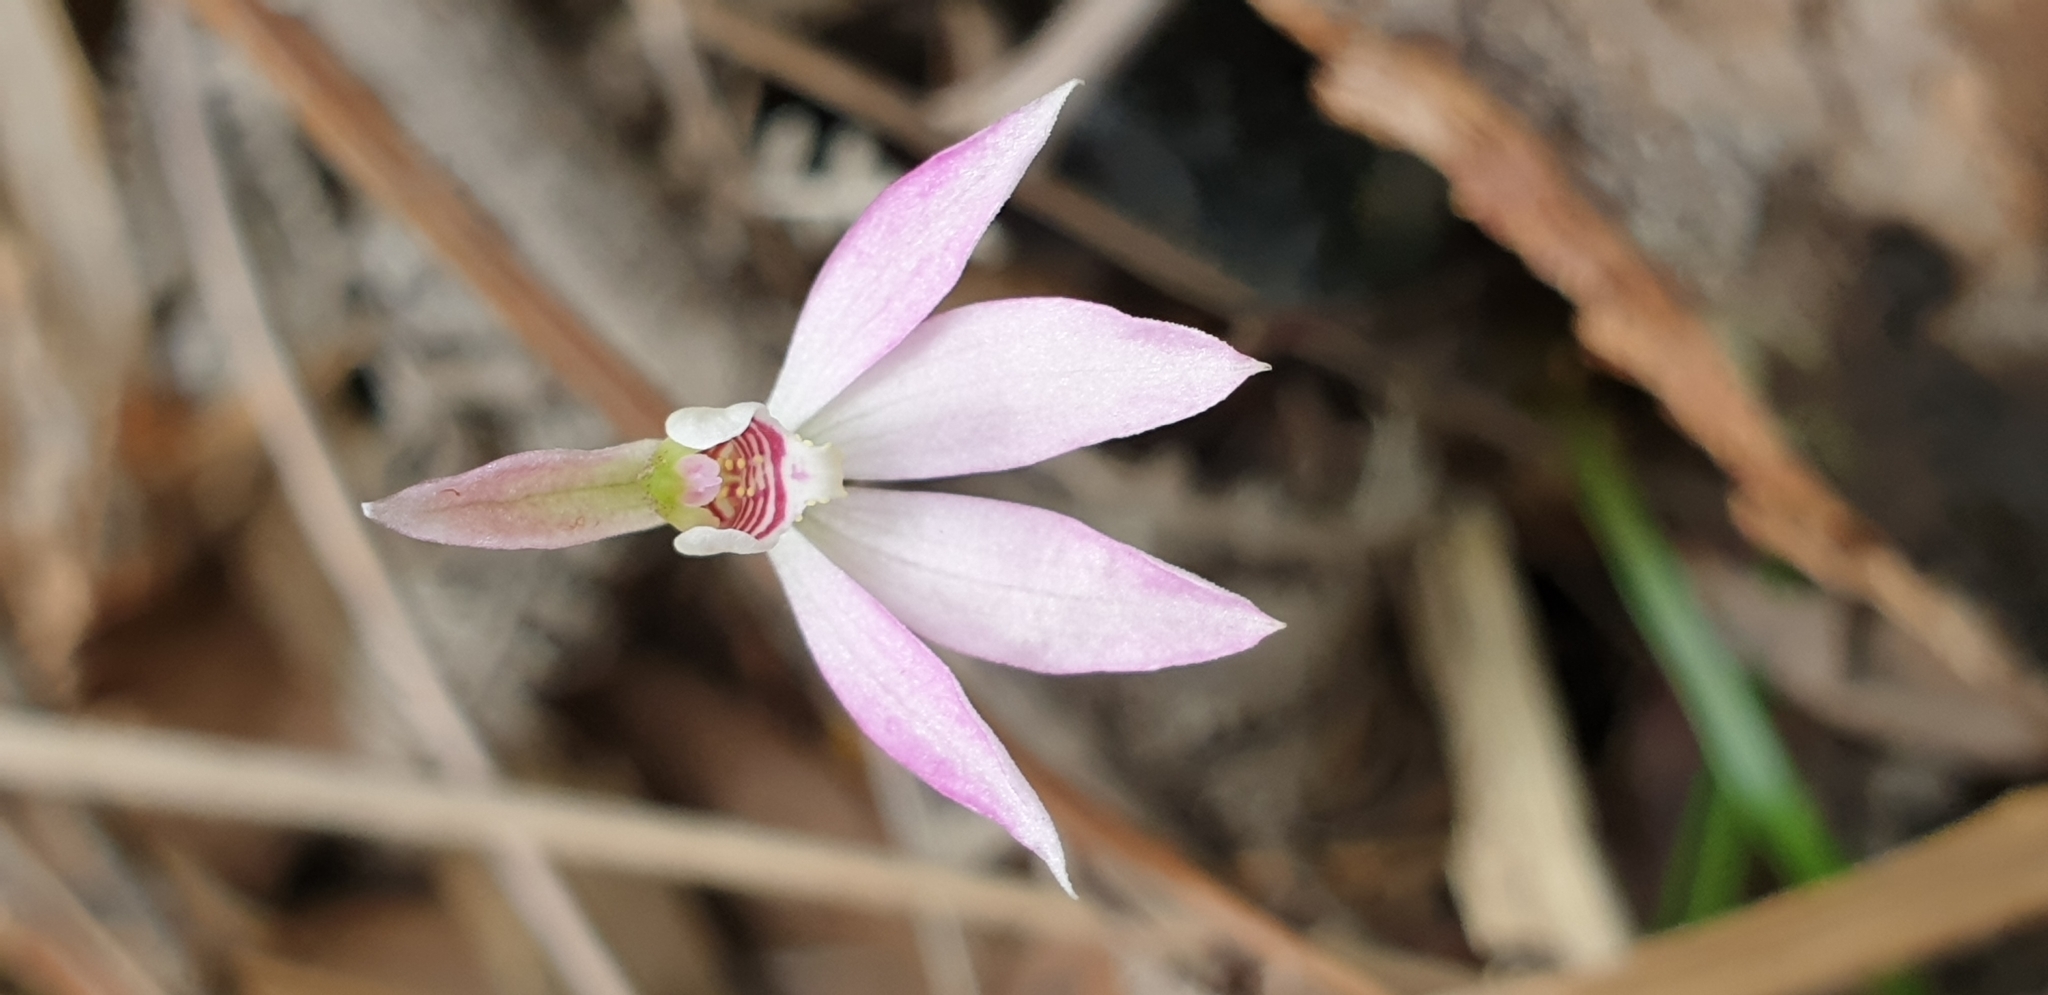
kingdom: Plantae
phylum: Tracheophyta
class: Liliopsida
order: Asparagales
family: Orchidaceae
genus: Caladenia
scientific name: Caladenia carnea
